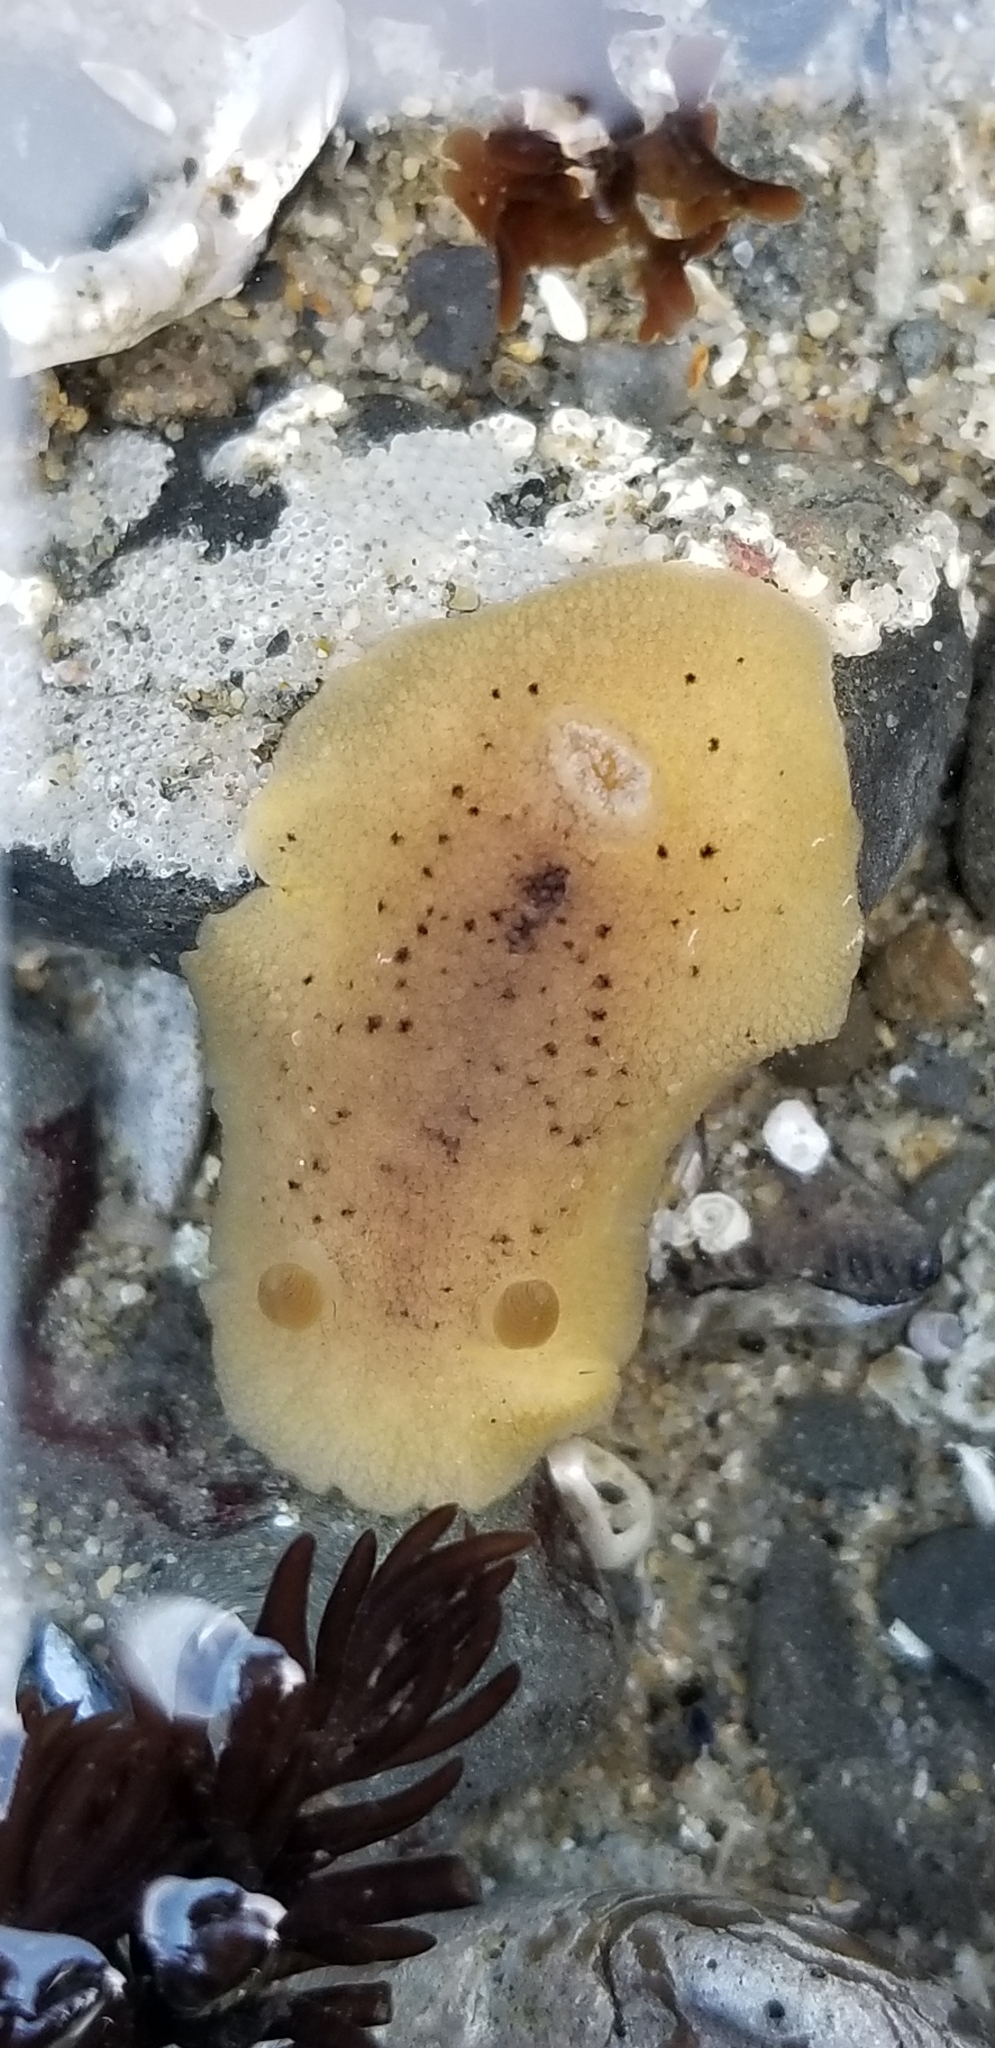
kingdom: Animalia
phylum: Mollusca
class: Gastropoda
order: Nudibranchia
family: Discodorididae
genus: Geitodoris
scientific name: Geitodoris heathi
